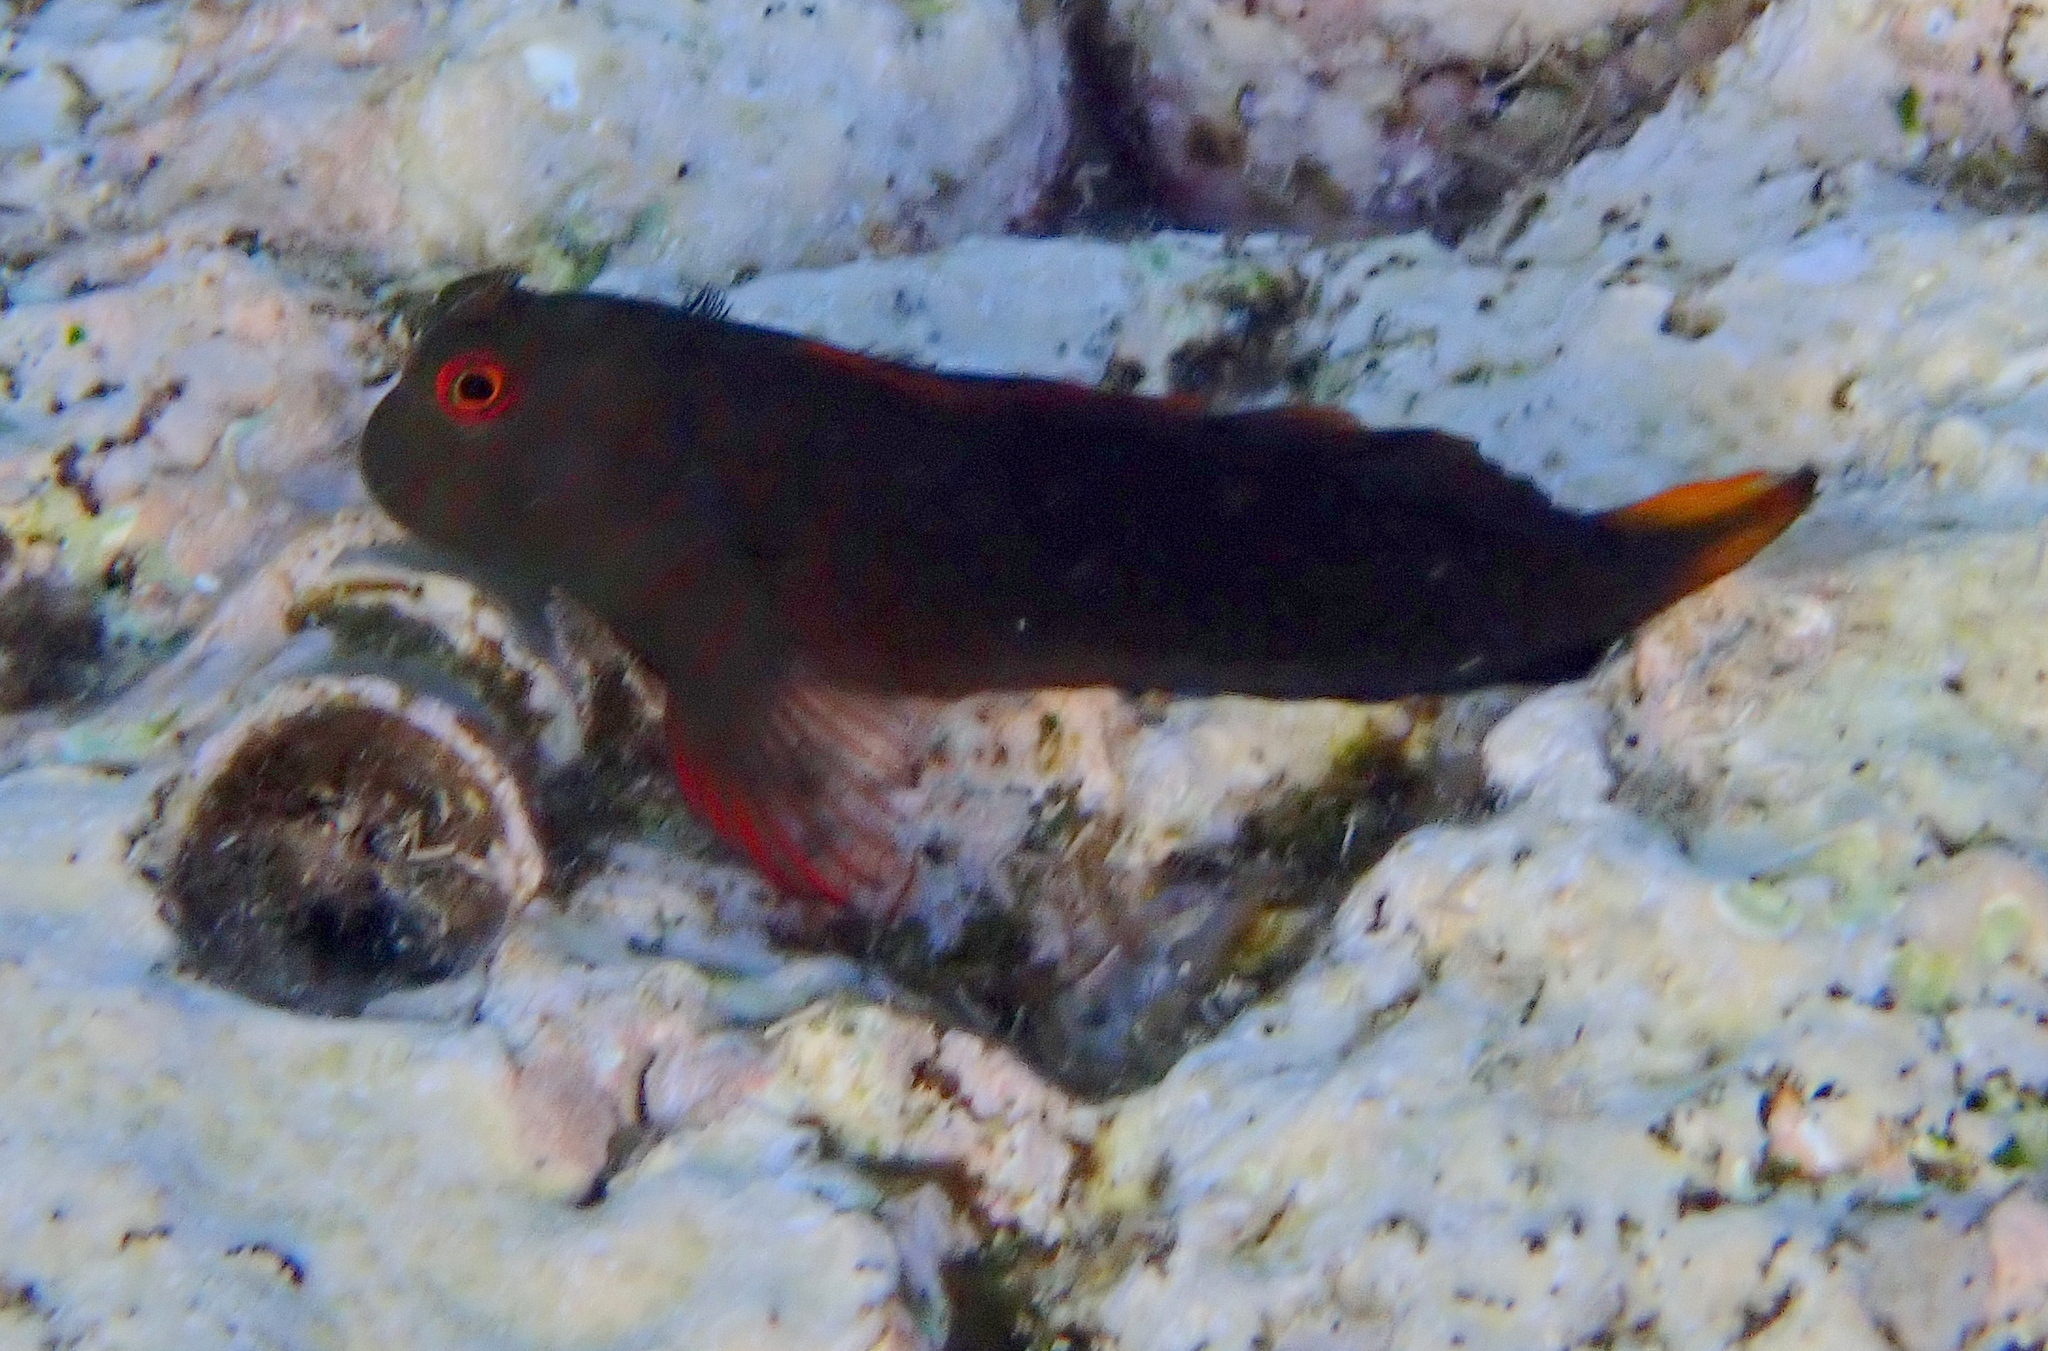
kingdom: Animalia
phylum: Chordata
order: Perciformes
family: Blenniidae
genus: Cirripectes
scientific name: Cirripectes castaneus
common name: Chestnut blenny
